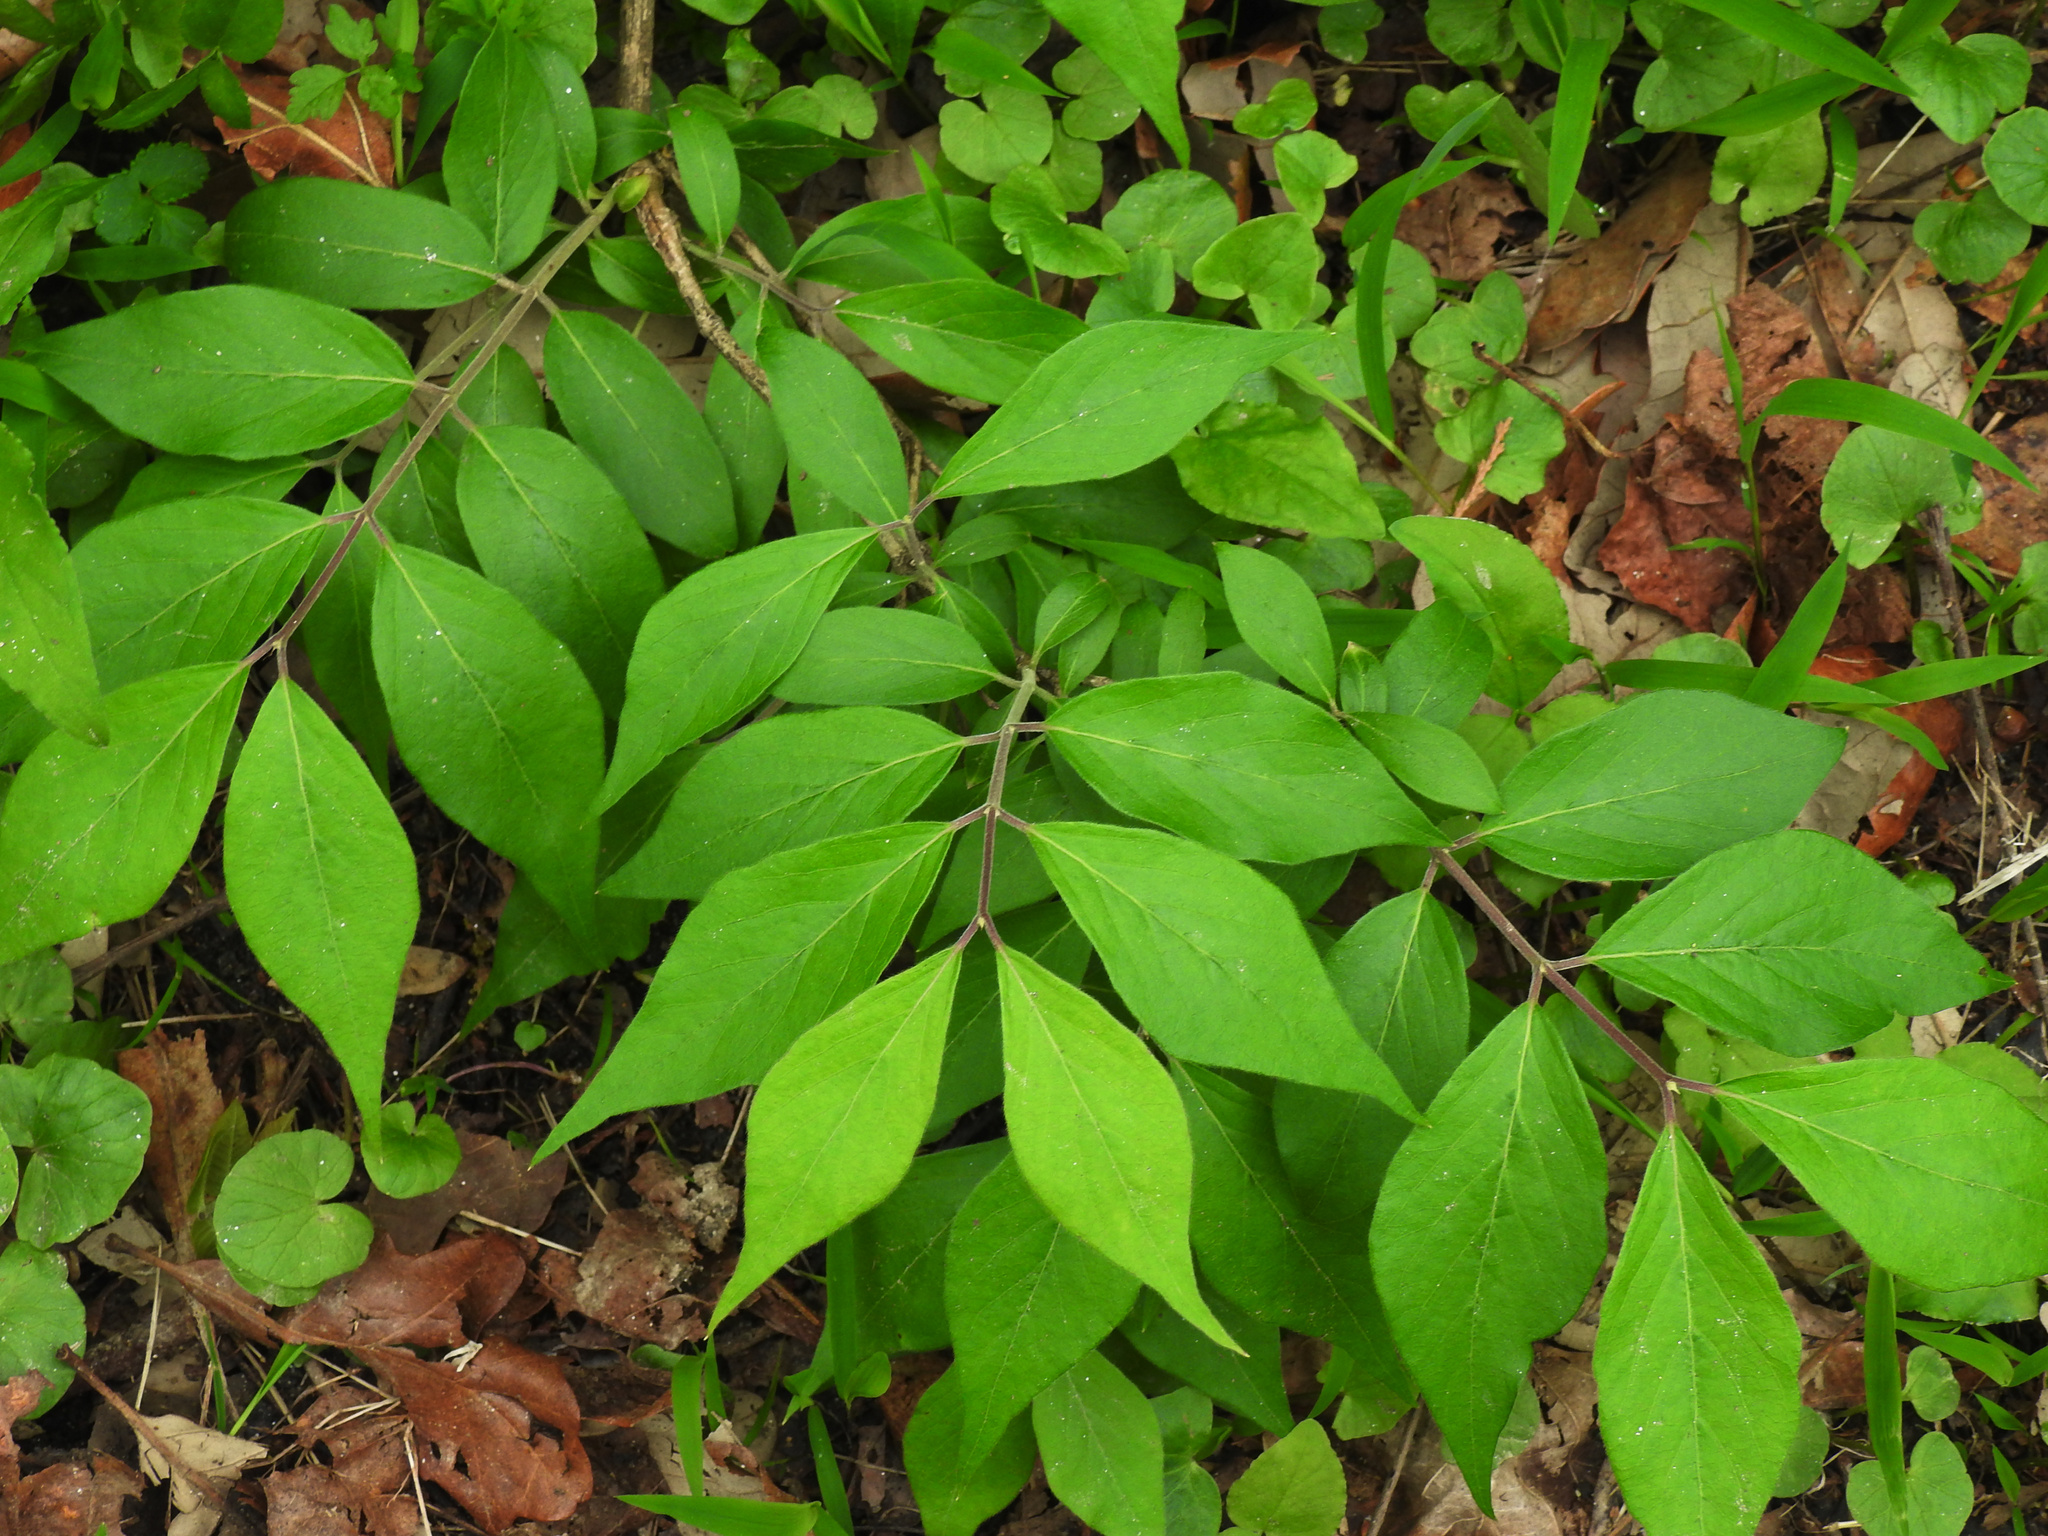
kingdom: Plantae
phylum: Tracheophyta
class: Magnoliopsida
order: Dipsacales
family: Caprifoliaceae
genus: Lonicera
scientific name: Lonicera maackii
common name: Amur honeysuckle
